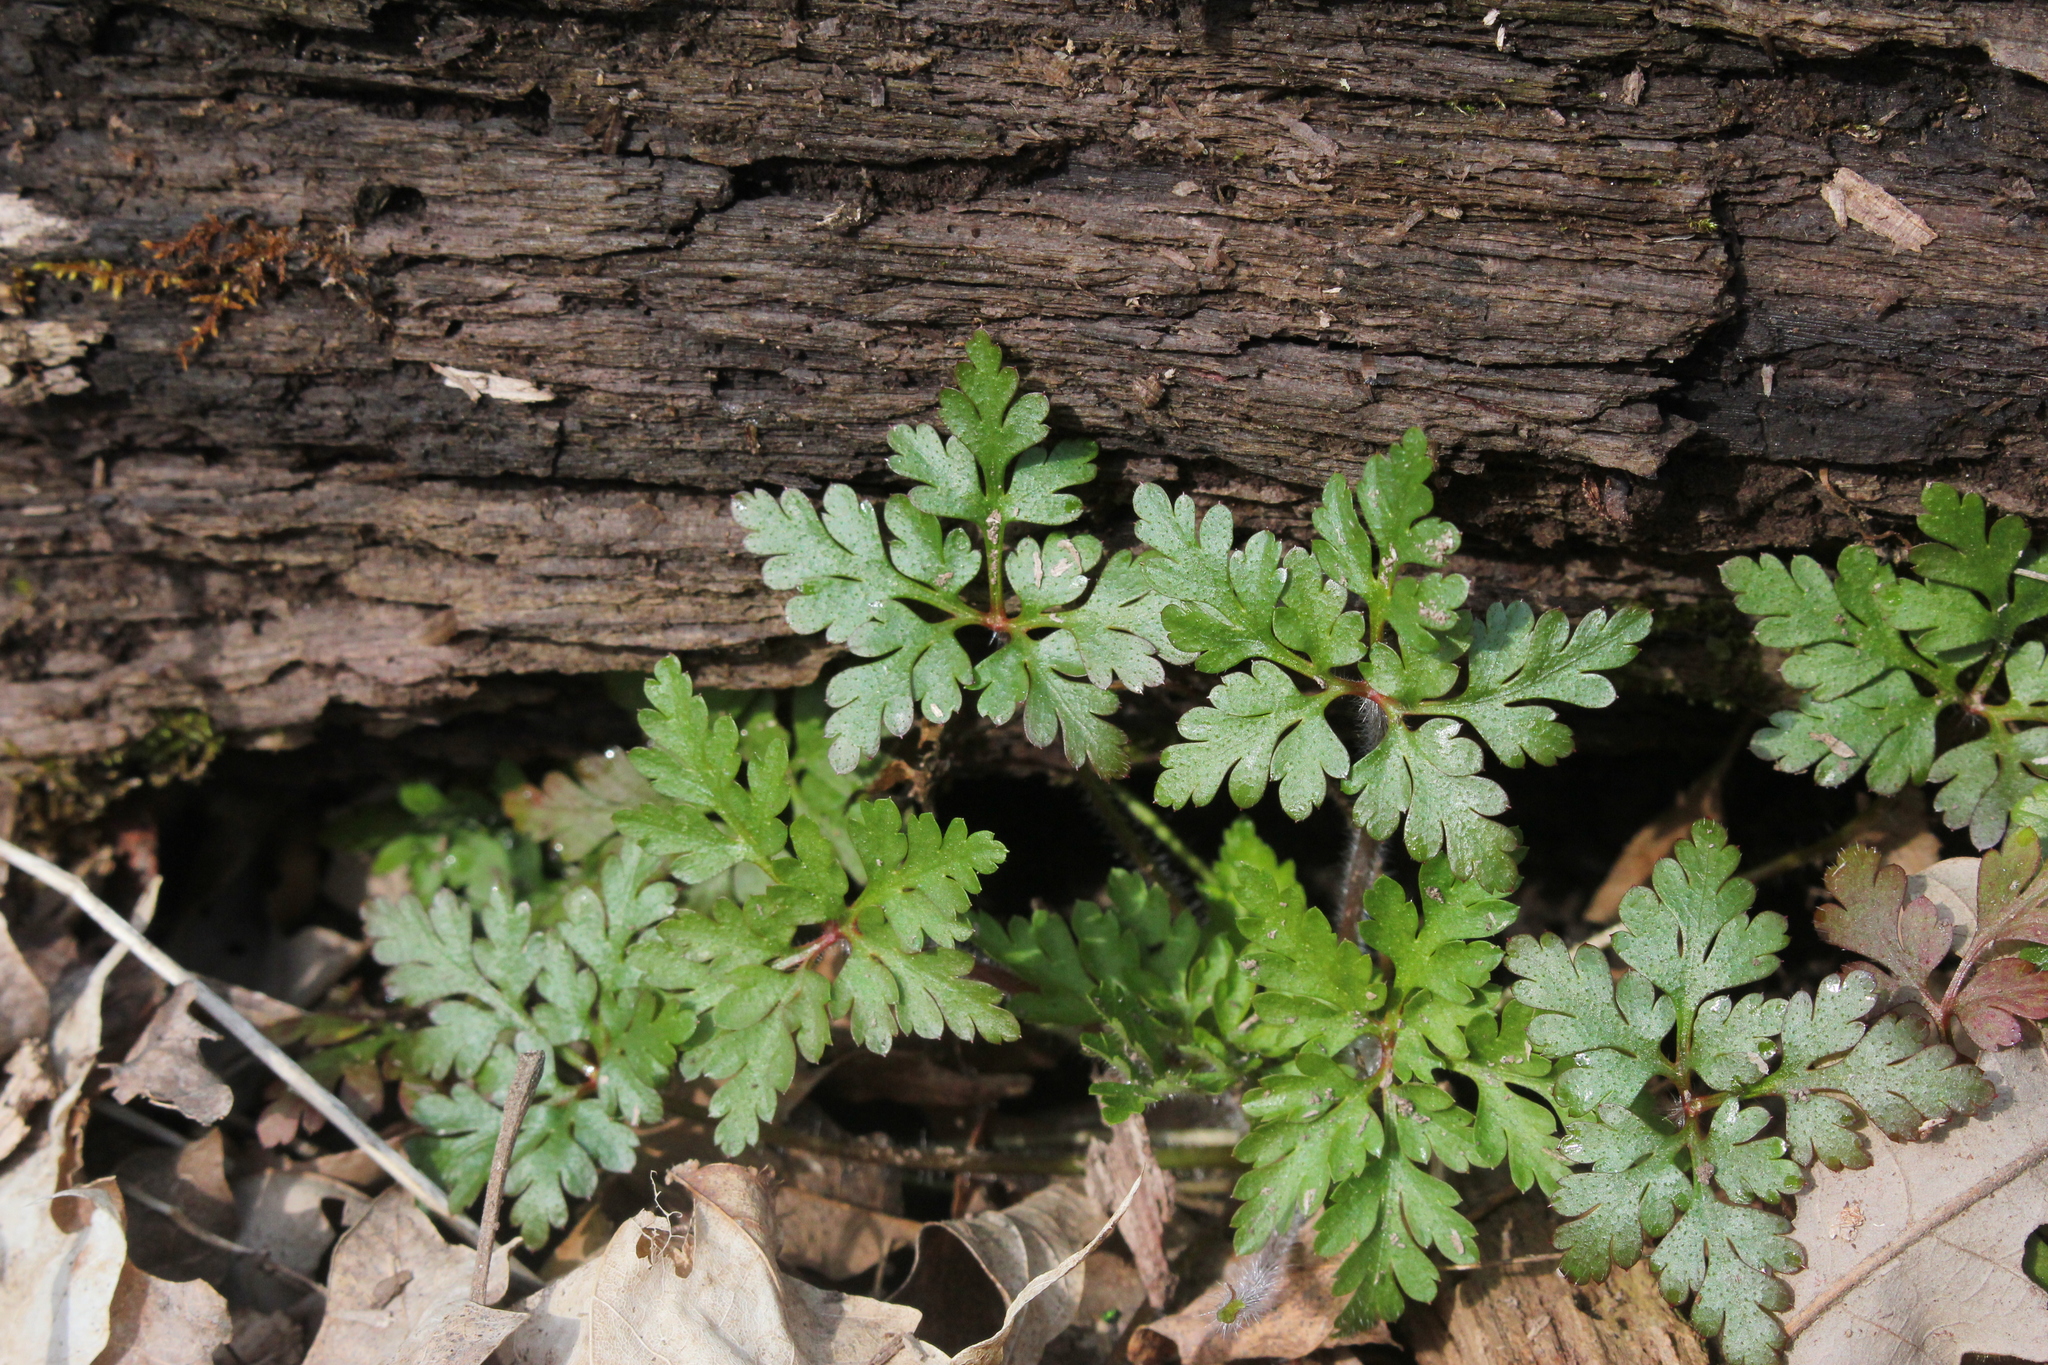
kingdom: Plantae
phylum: Tracheophyta
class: Magnoliopsida
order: Geraniales
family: Geraniaceae
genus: Geranium
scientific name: Geranium robertianum
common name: Herb-robert
